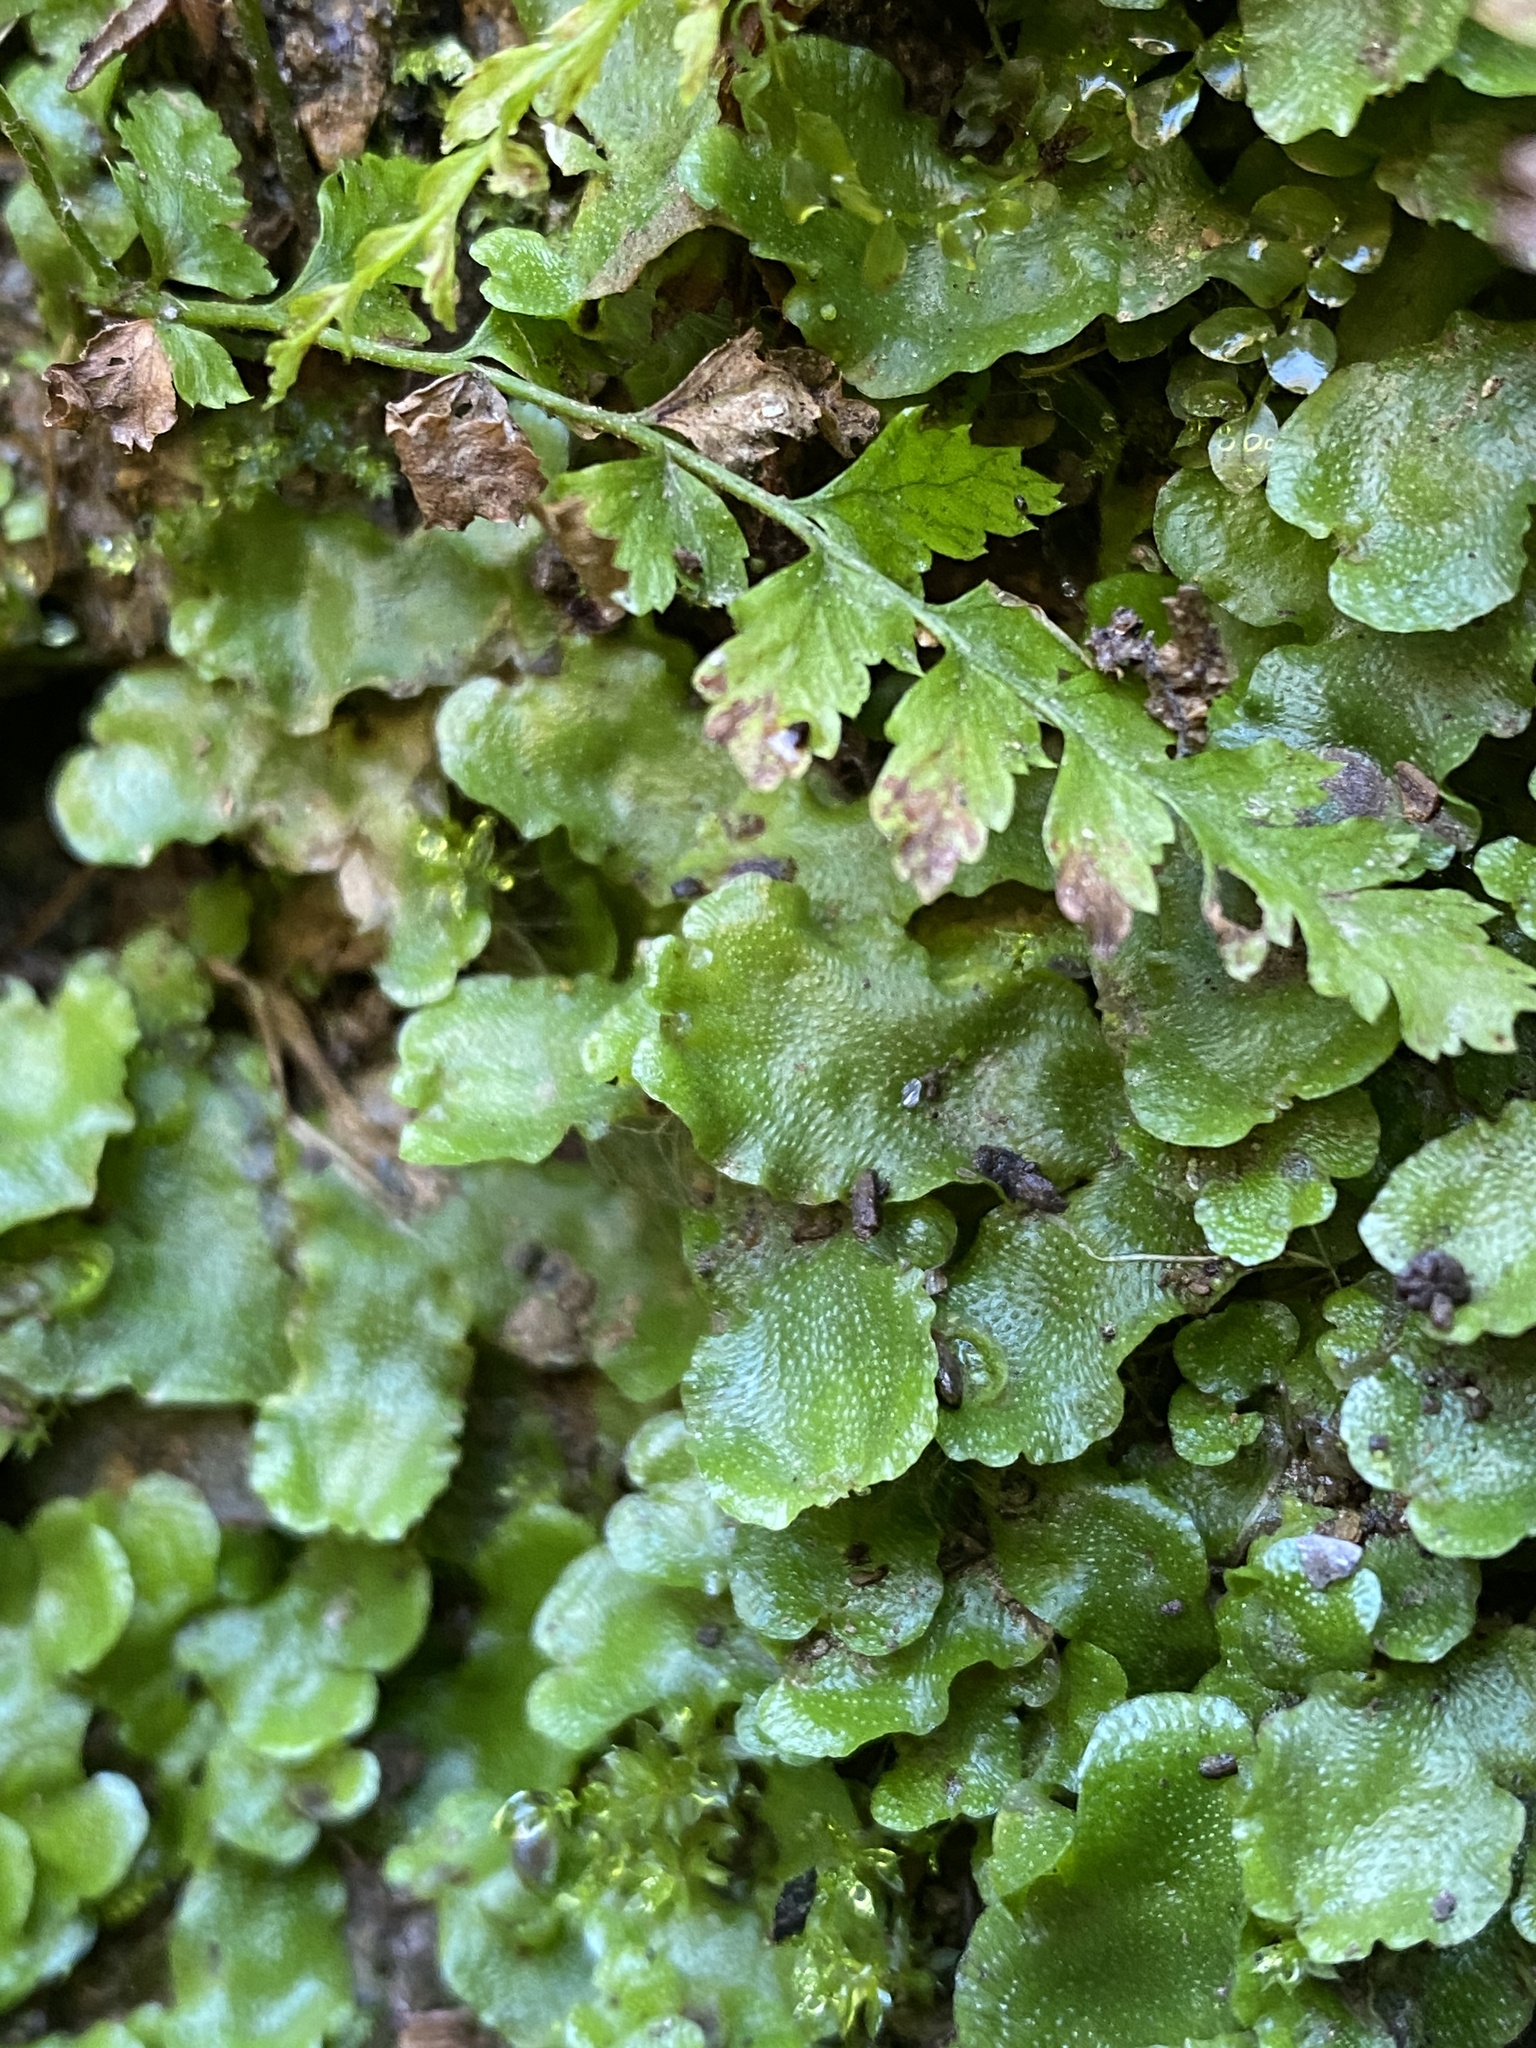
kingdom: Plantae
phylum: Marchantiophyta
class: Marchantiopsida
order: Lunulariales
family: Lunulariaceae
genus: Lunularia
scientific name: Lunularia cruciata
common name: Crescent-cup liverwort
